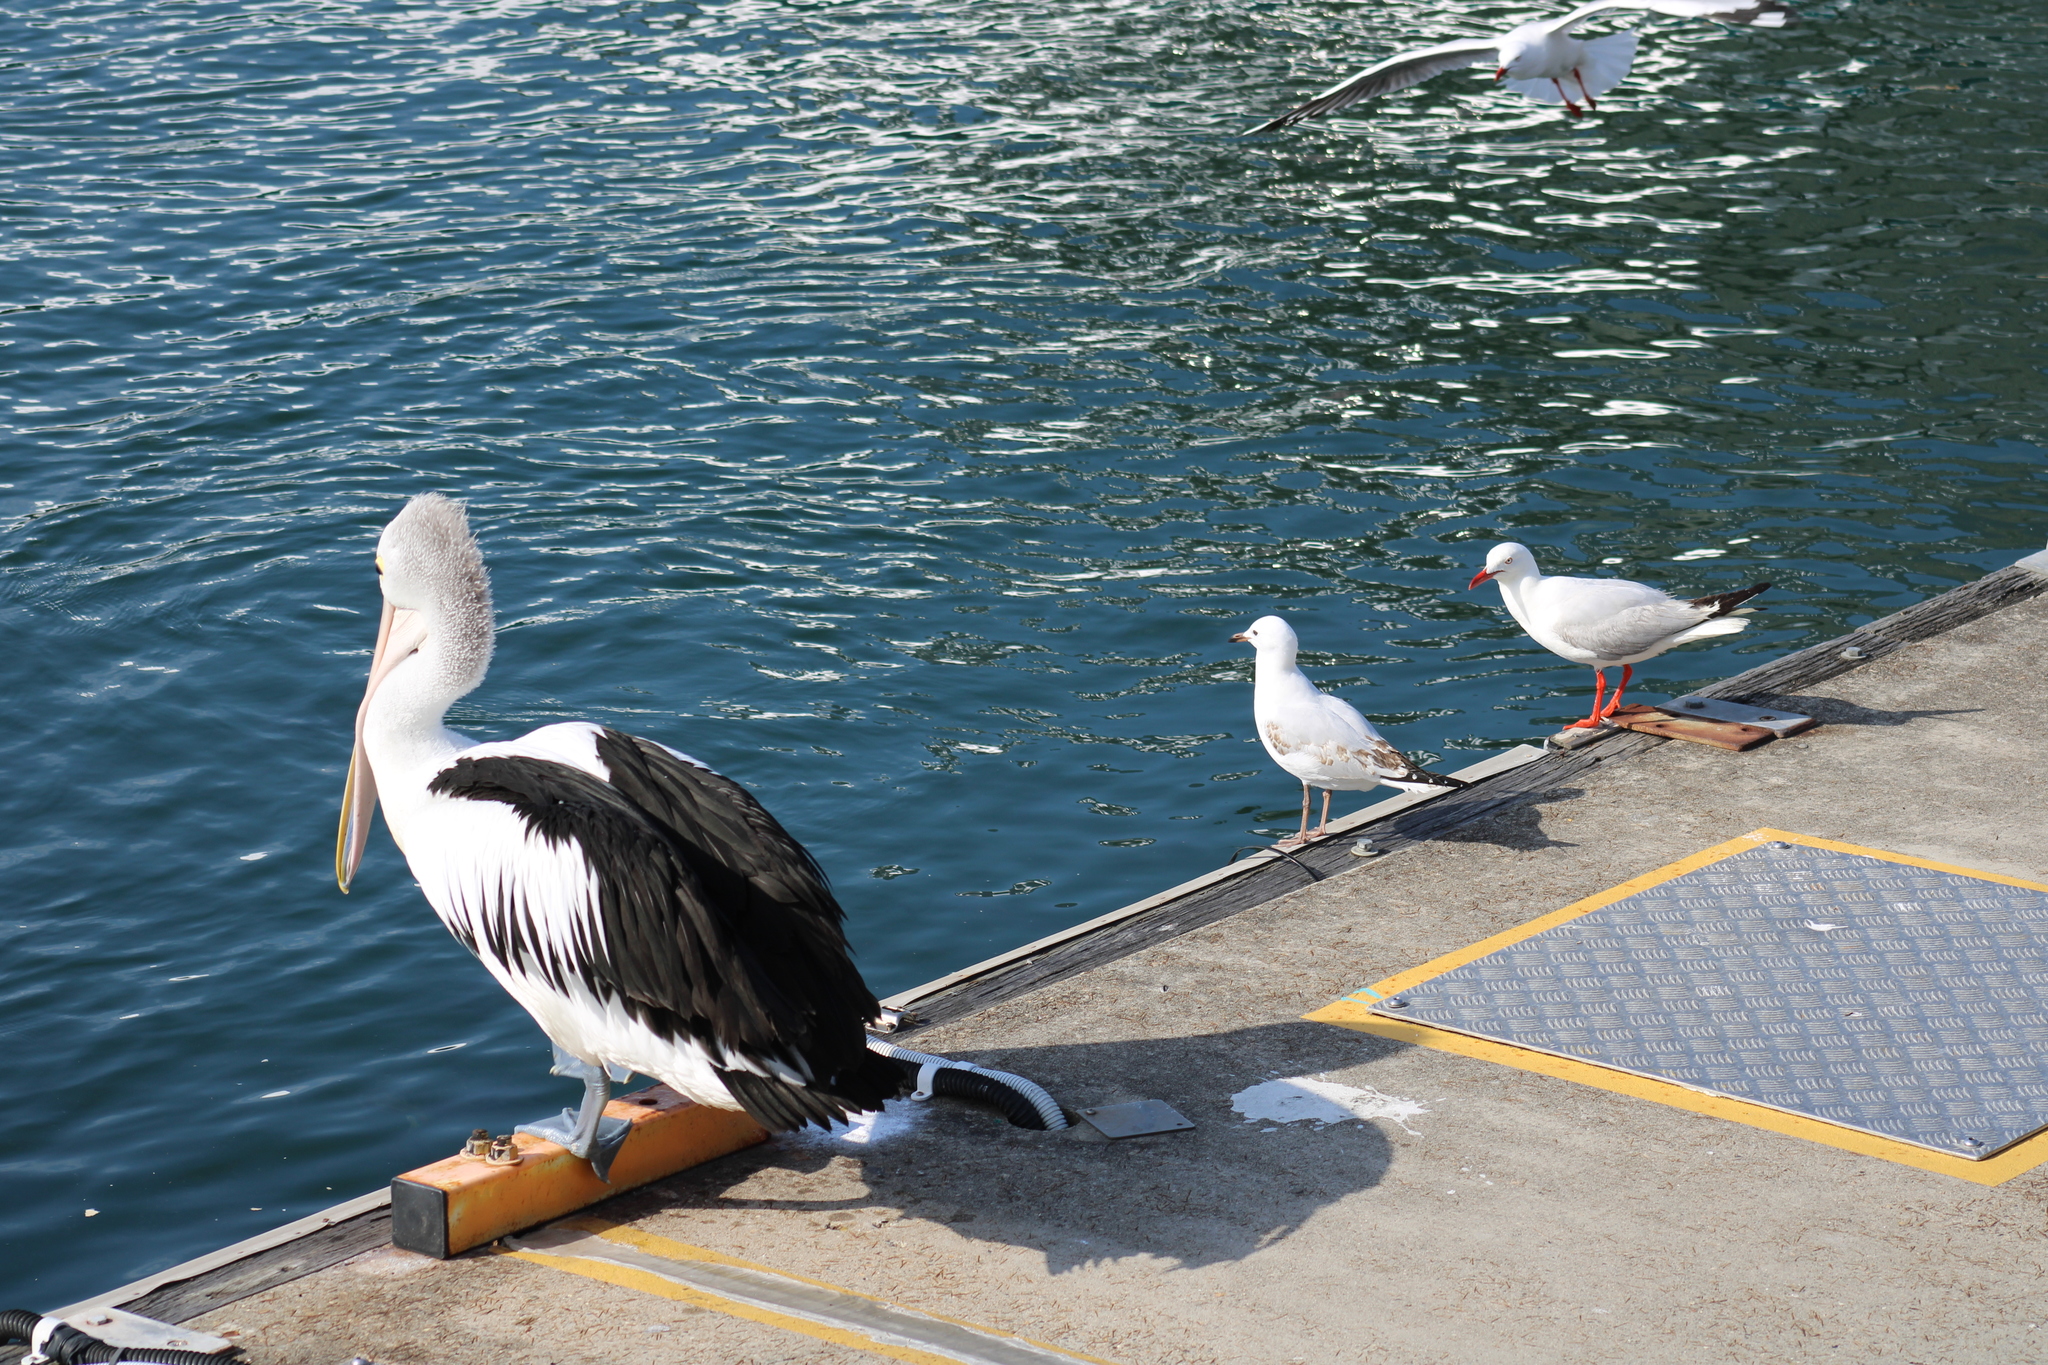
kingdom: Animalia
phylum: Chordata
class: Aves
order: Pelecaniformes
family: Pelecanidae
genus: Pelecanus
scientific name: Pelecanus conspicillatus
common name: Australian pelican
